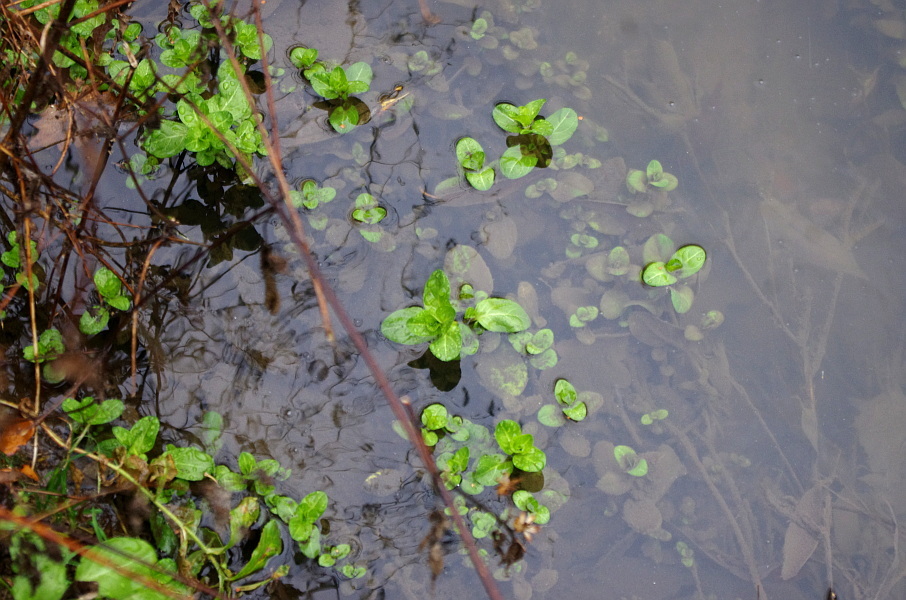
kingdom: Plantae
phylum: Tracheophyta
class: Magnoliopsida
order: Lamiales
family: Plantaginaceae
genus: Veronica
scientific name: Veronica beccabunga
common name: Brooklime
